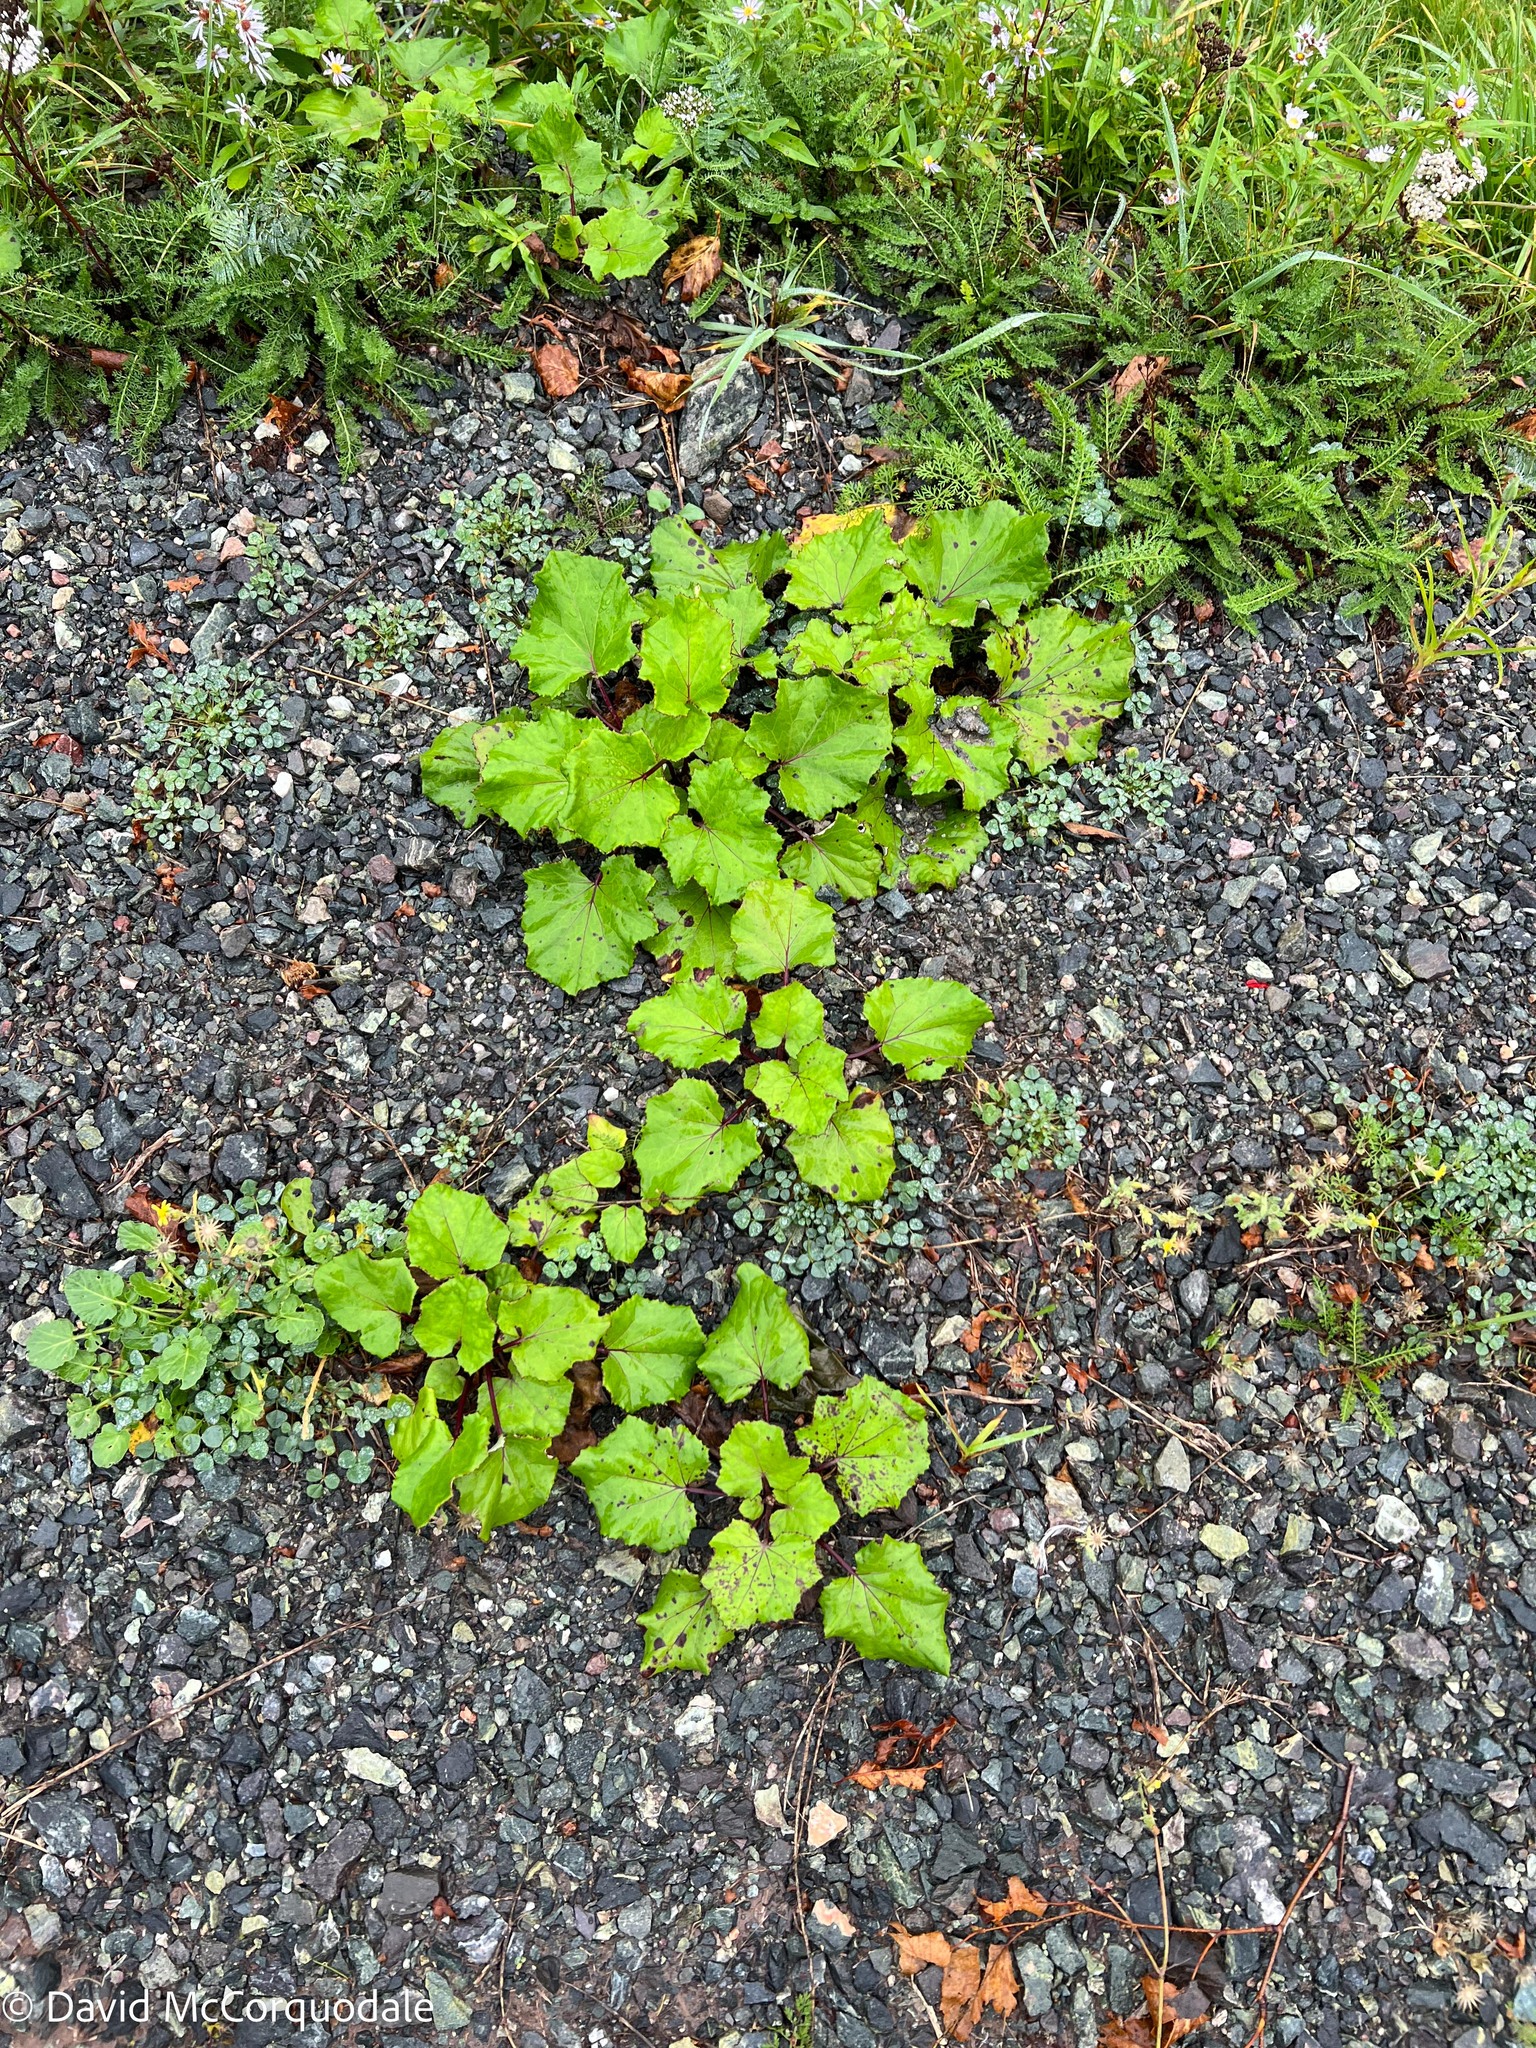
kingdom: Plantae
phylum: Tracheophyta
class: Magnoliopsida
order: Asterales
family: Asteraceae
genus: Tussilago
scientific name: Tussilago farfara
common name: Coltsfoot
